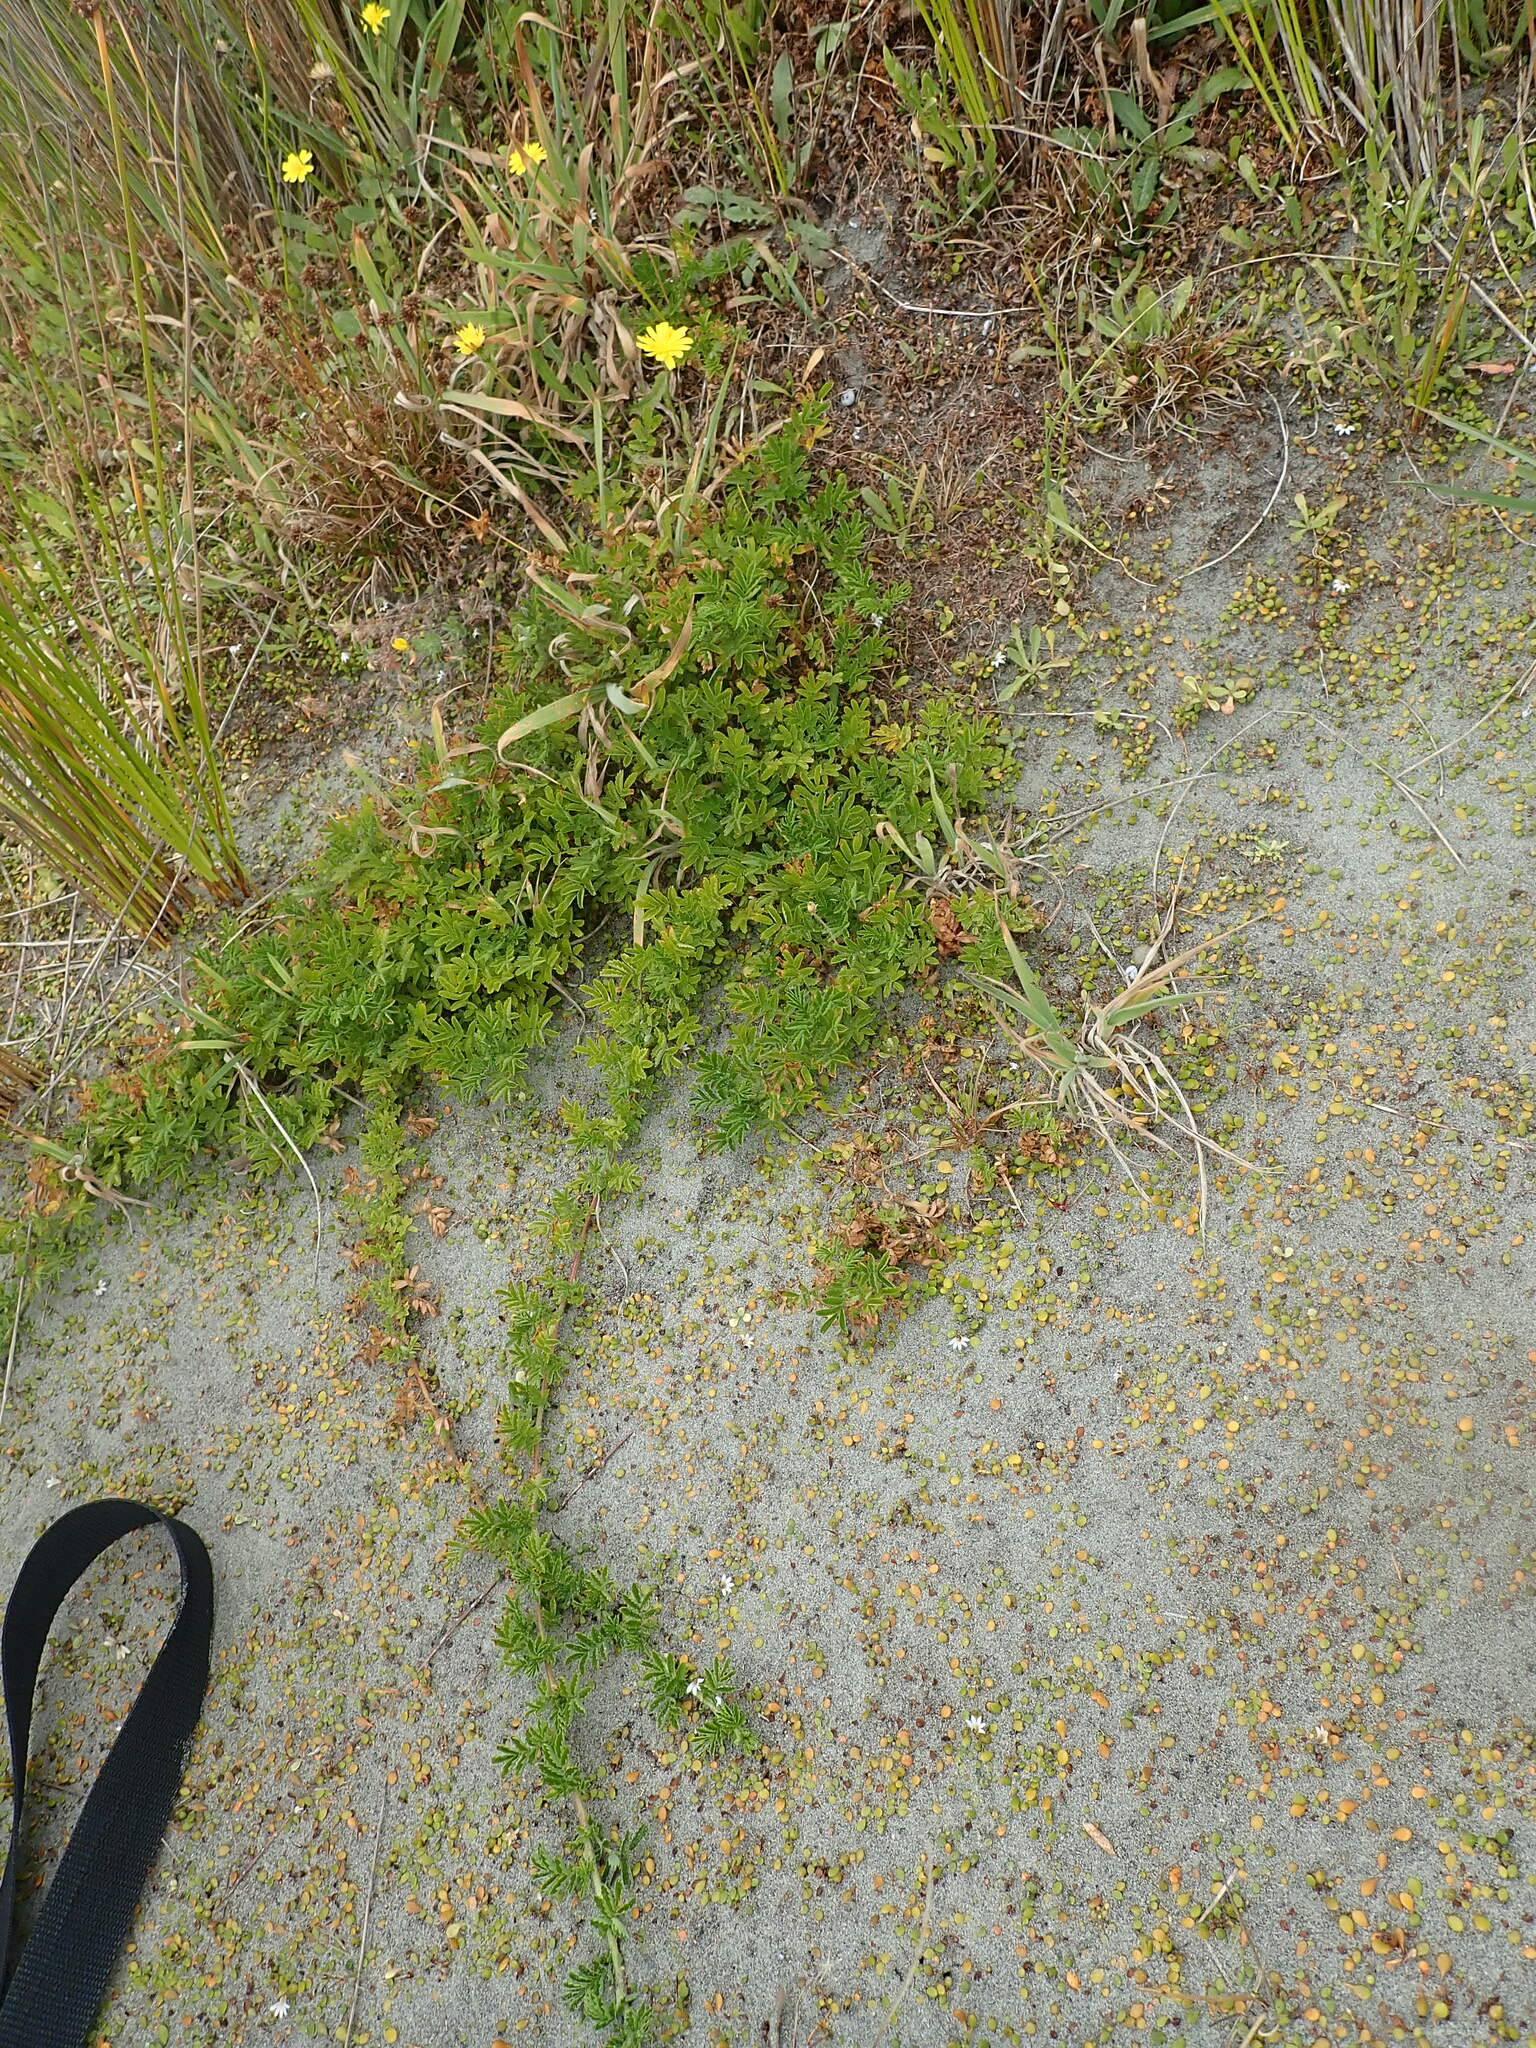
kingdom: Plantae
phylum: Tracheophyta
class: Magnoliopsida
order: Rosales
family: Rosaceae
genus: Acaena
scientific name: Acaena novae-zelandiae
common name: Pirri-pirri-bur
